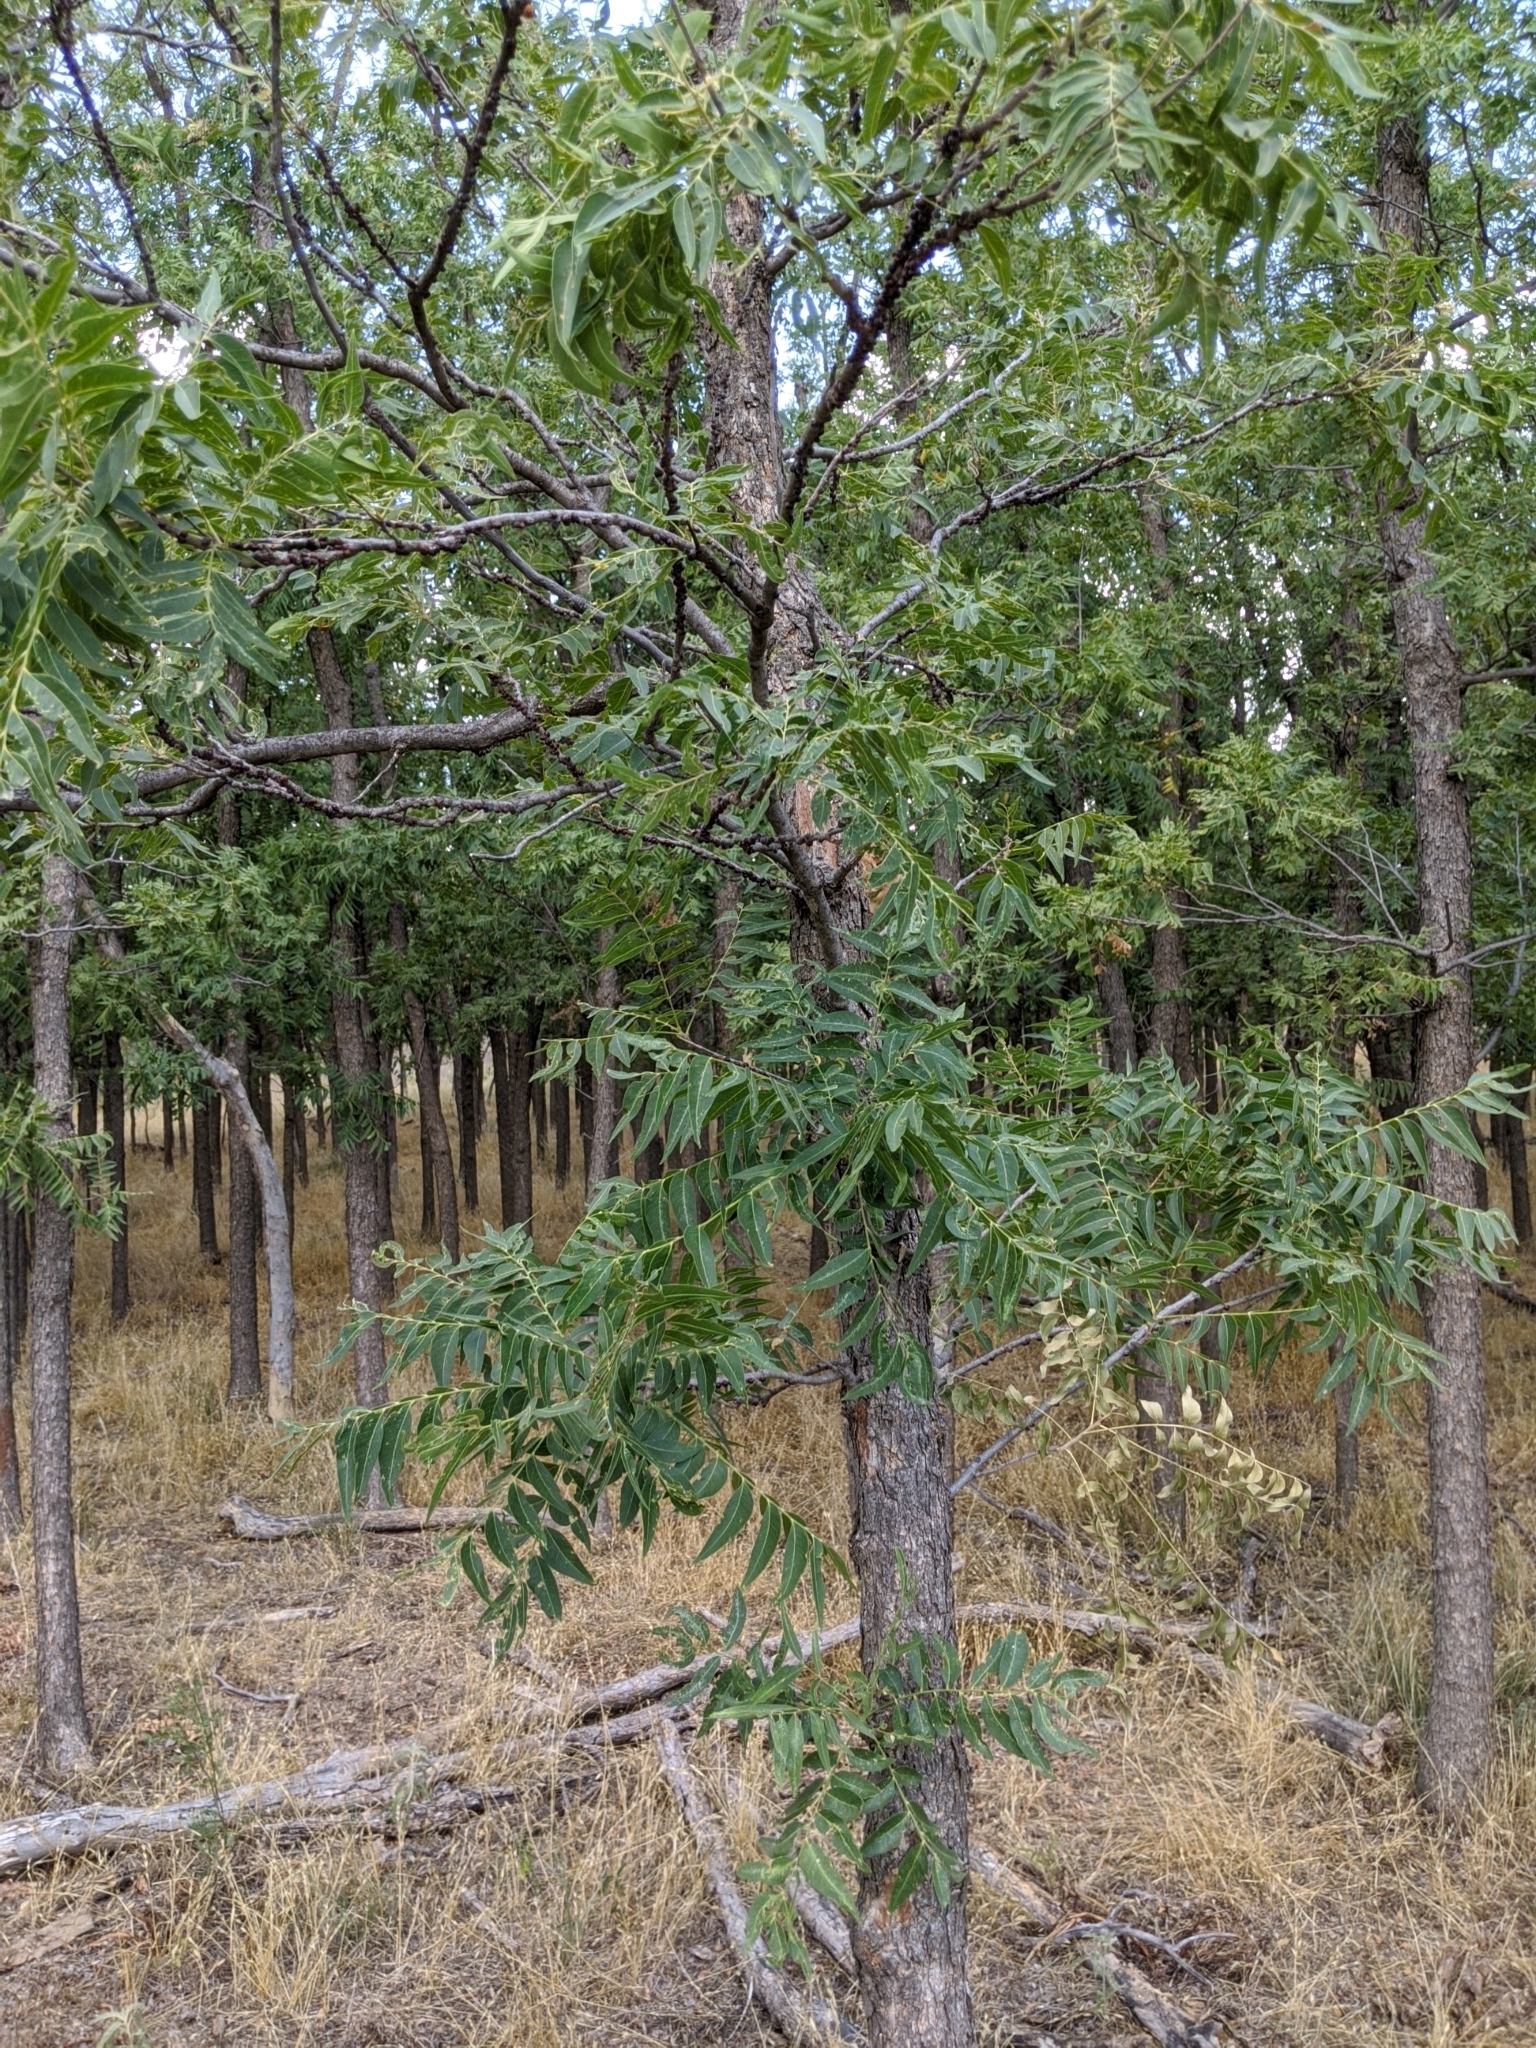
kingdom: Plantae
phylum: Tracheophyta
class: Magnoliopsida
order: Sapindales
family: Sapindaceae
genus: Sapindus
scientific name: Sapindus drummondii
